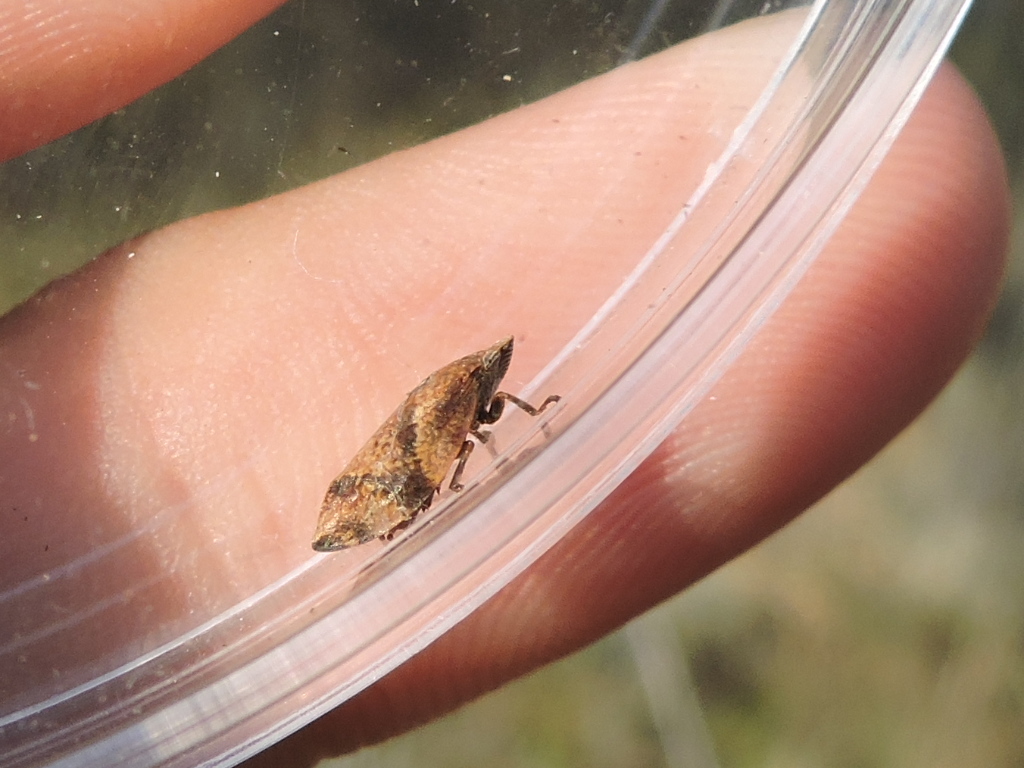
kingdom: Animalia
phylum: Arthropoda
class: Insecta
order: Hemiptera
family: Aphrophoridae
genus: Lepyronia
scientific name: Lepyronia quadrangularis
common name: Diamond-backed spittlebug
